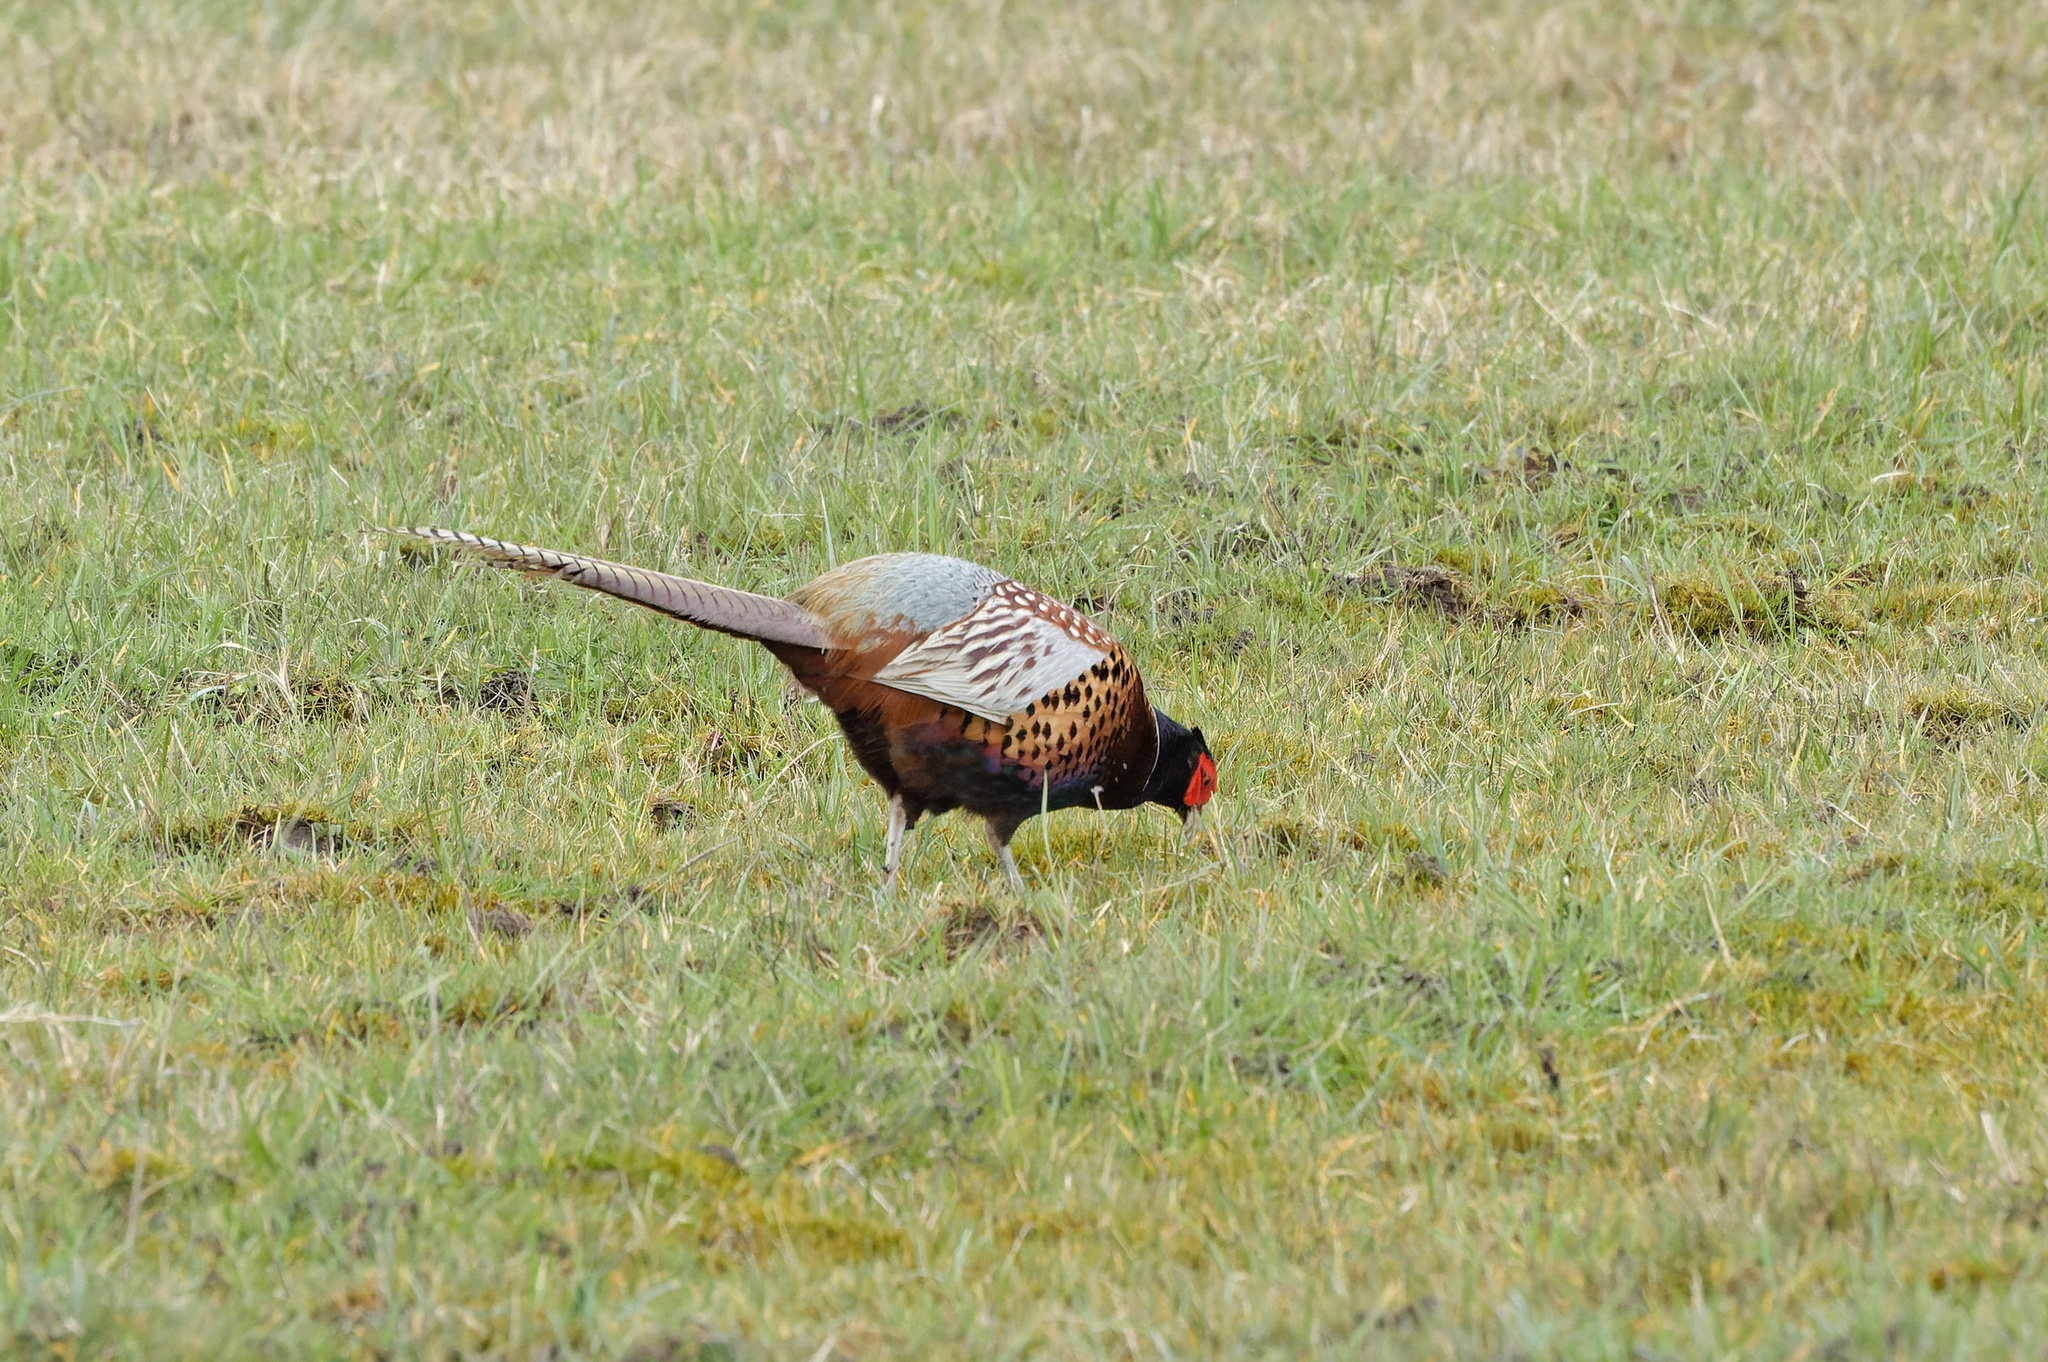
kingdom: Animalia
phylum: Chordata
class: Aves
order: Galliformes
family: Phasianidae
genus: Phasianus
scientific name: Phasianus colchicus
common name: Common pheasant
